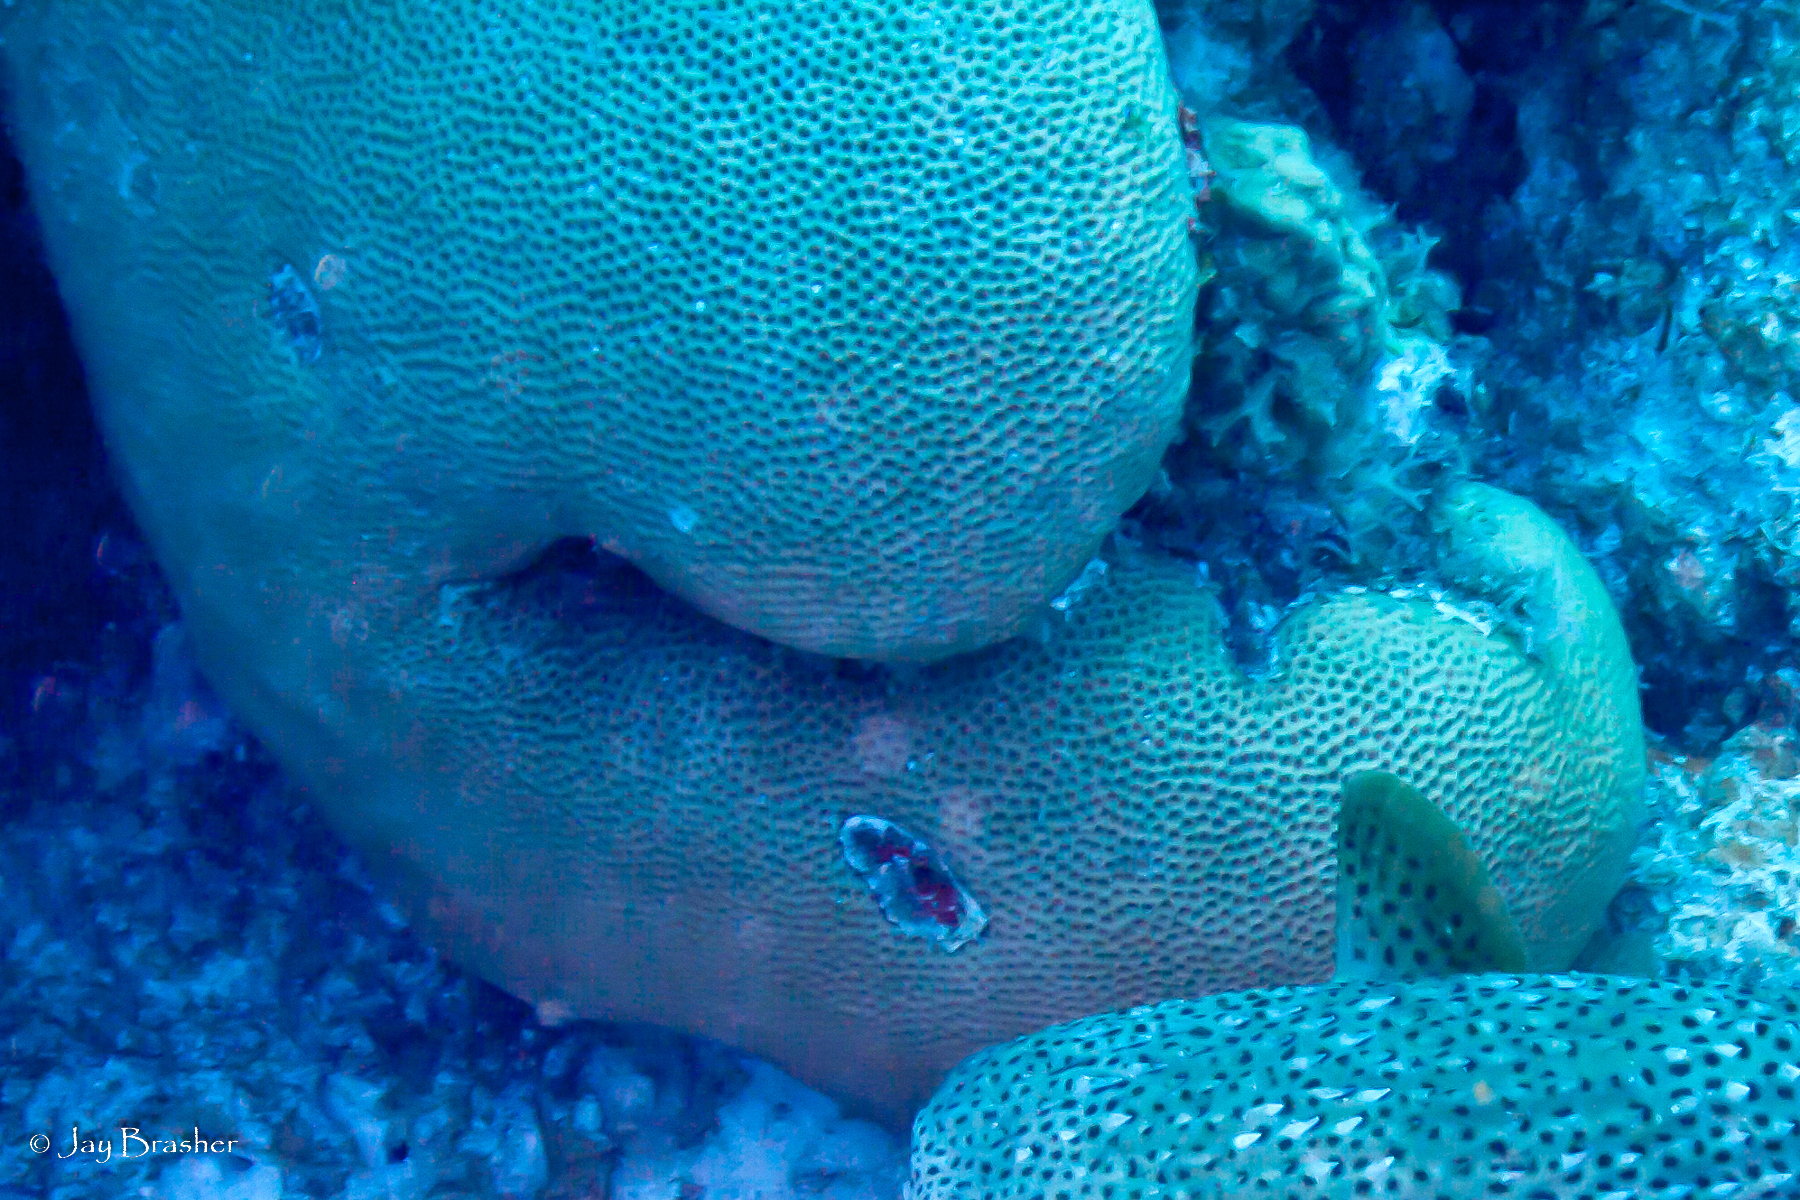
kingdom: Animalia
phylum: Cnidaria
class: Anthozoa
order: Scleractinia
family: Rhizangiidae
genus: Siderastrea
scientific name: Siderastrea siderea
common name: Massive starlet coral
